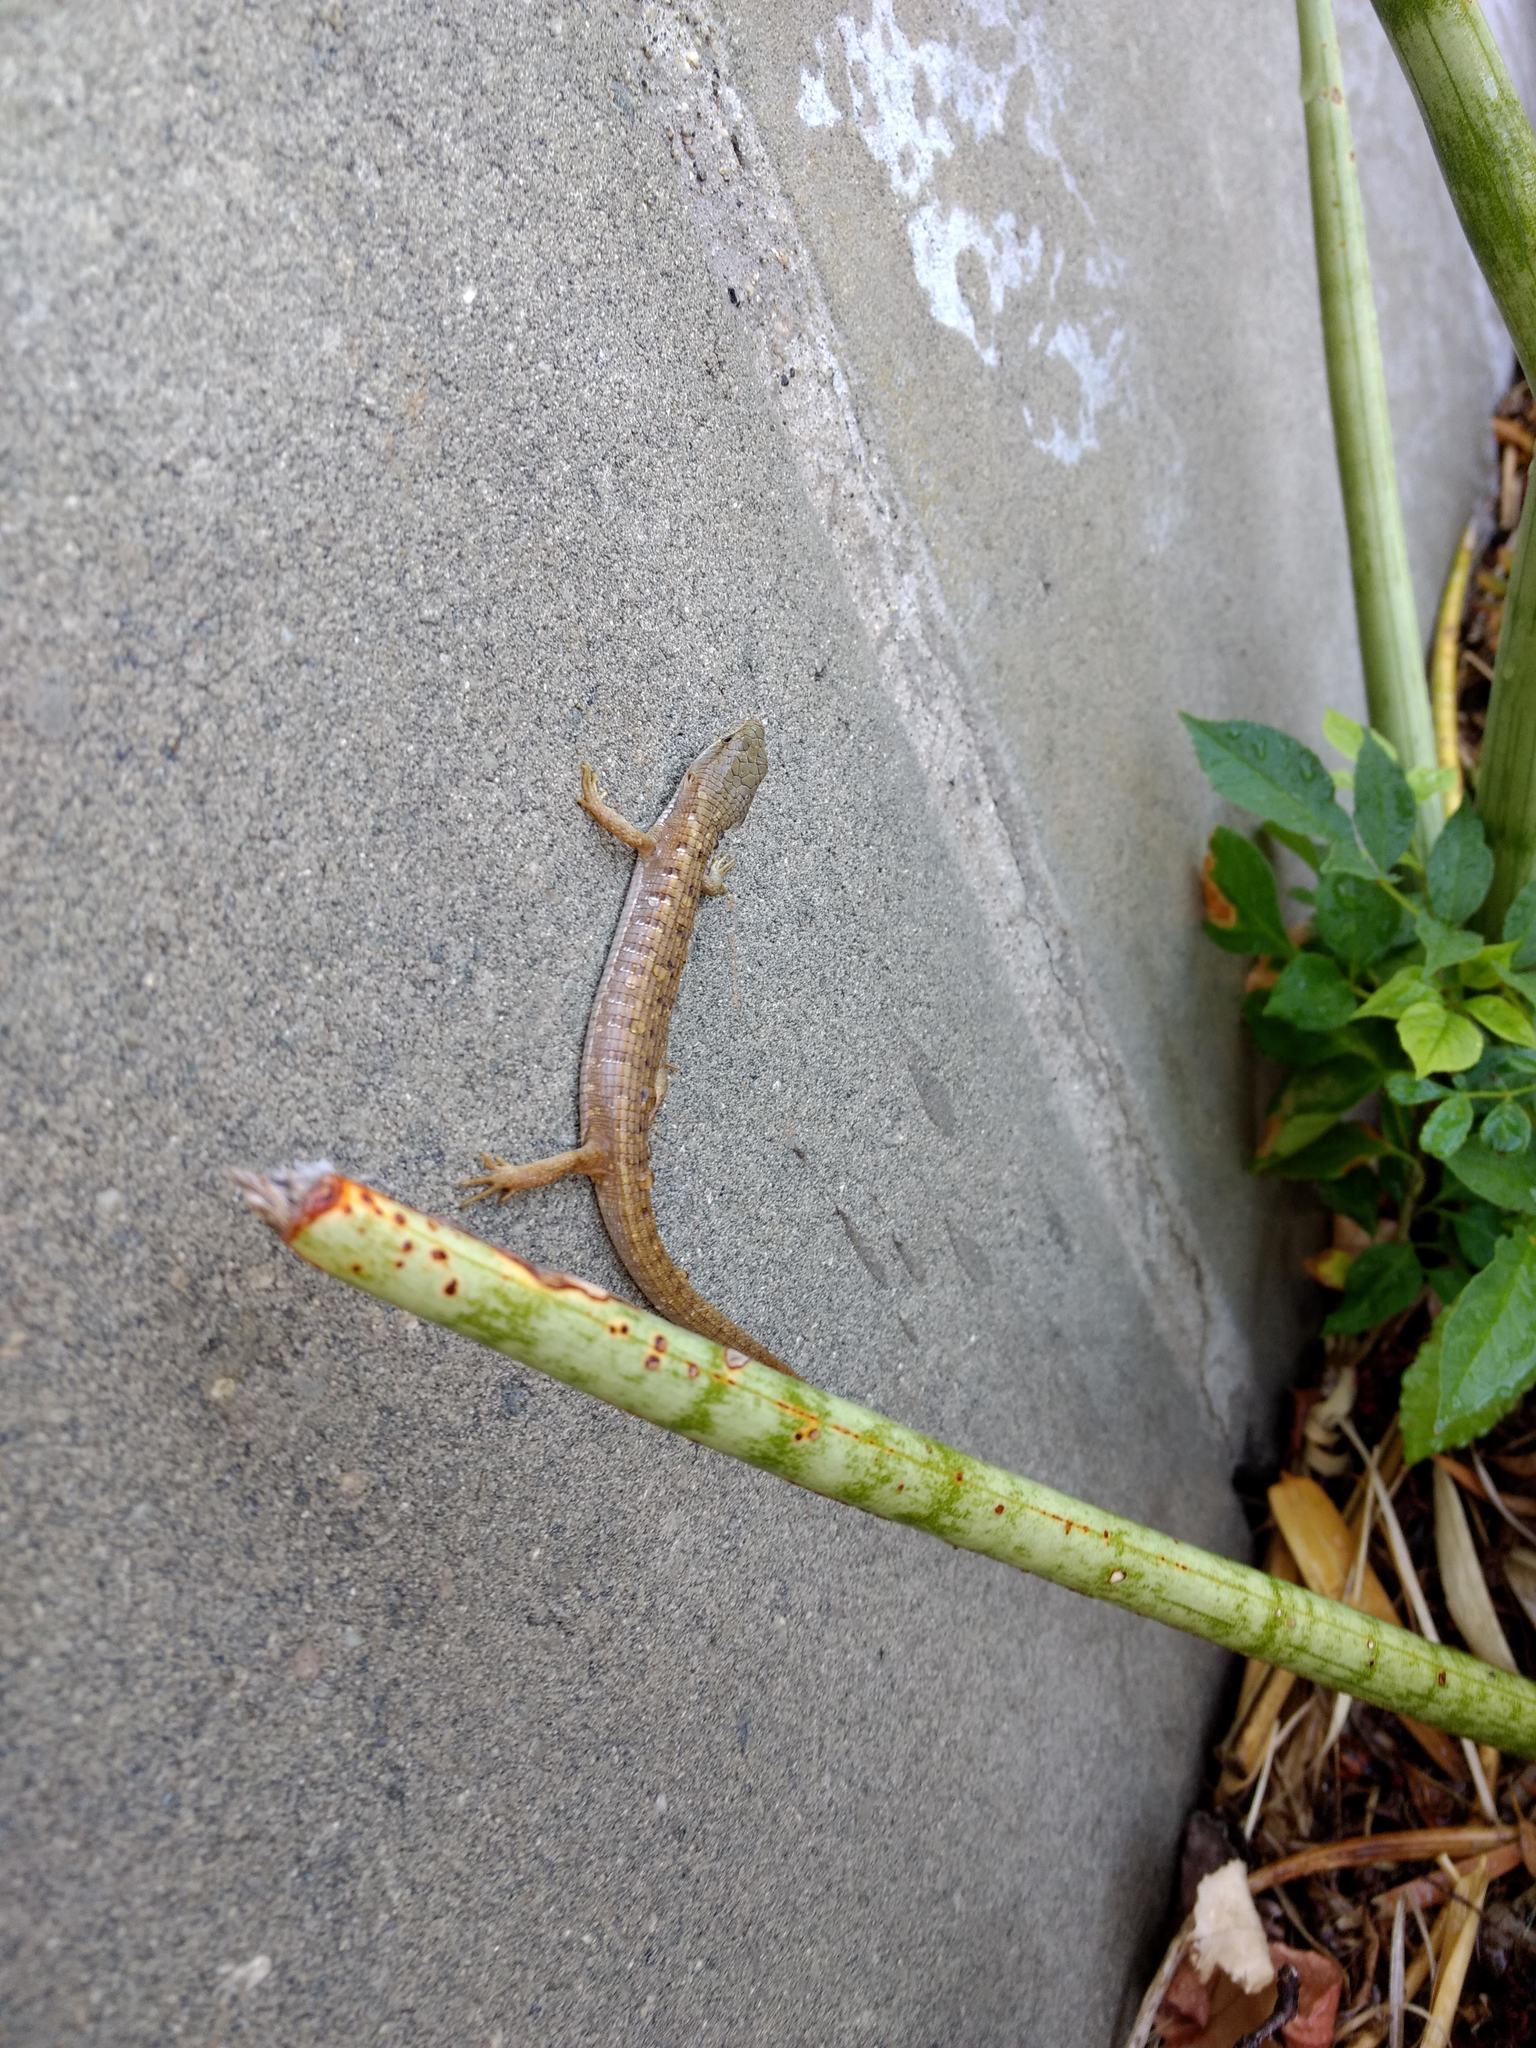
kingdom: Animalia
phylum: Chordata
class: Squamata
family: Anguidae
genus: Elgaria
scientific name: Elgaria multicarinata
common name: Southern alligator lizard
